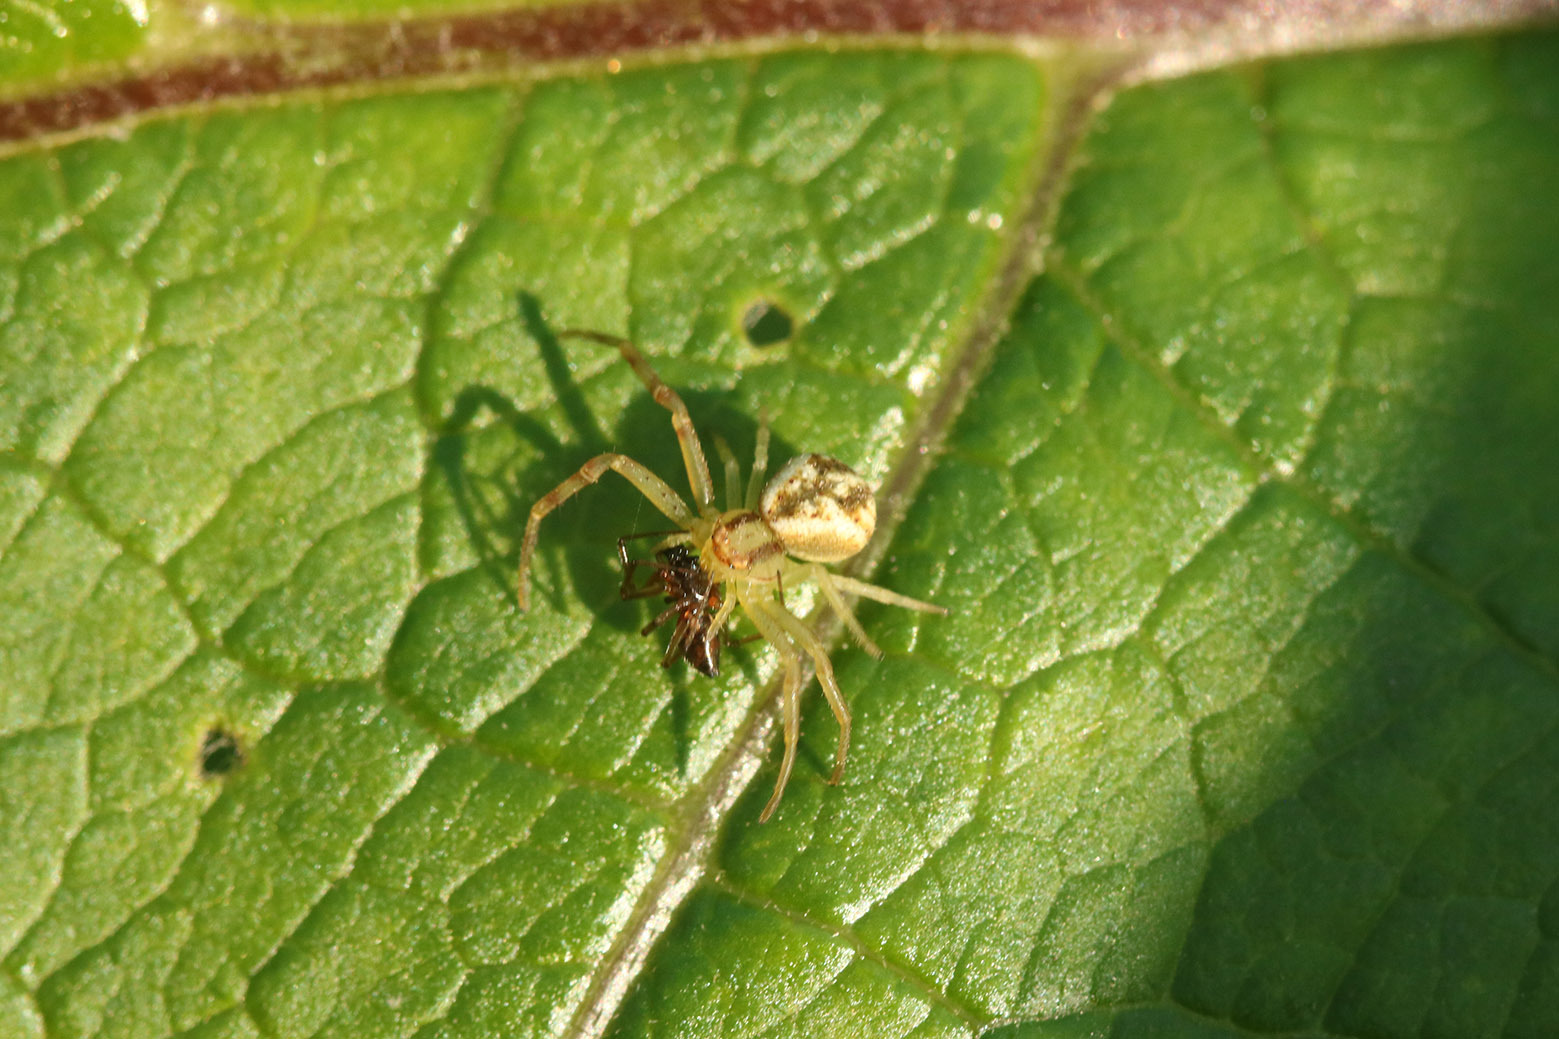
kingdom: Animalia
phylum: Arthropoda
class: Arachnida
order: Araneae
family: Thomisidae
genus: Misumenops
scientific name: Misumenops
